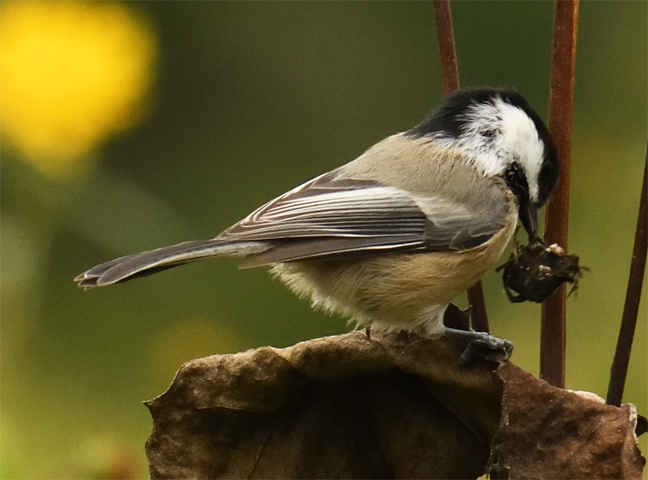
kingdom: Animalia
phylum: Chordata
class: Aves
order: Passeriformes
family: Paridae
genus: Poecile
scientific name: Poecile atricapillus
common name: Black-capped chickadee
